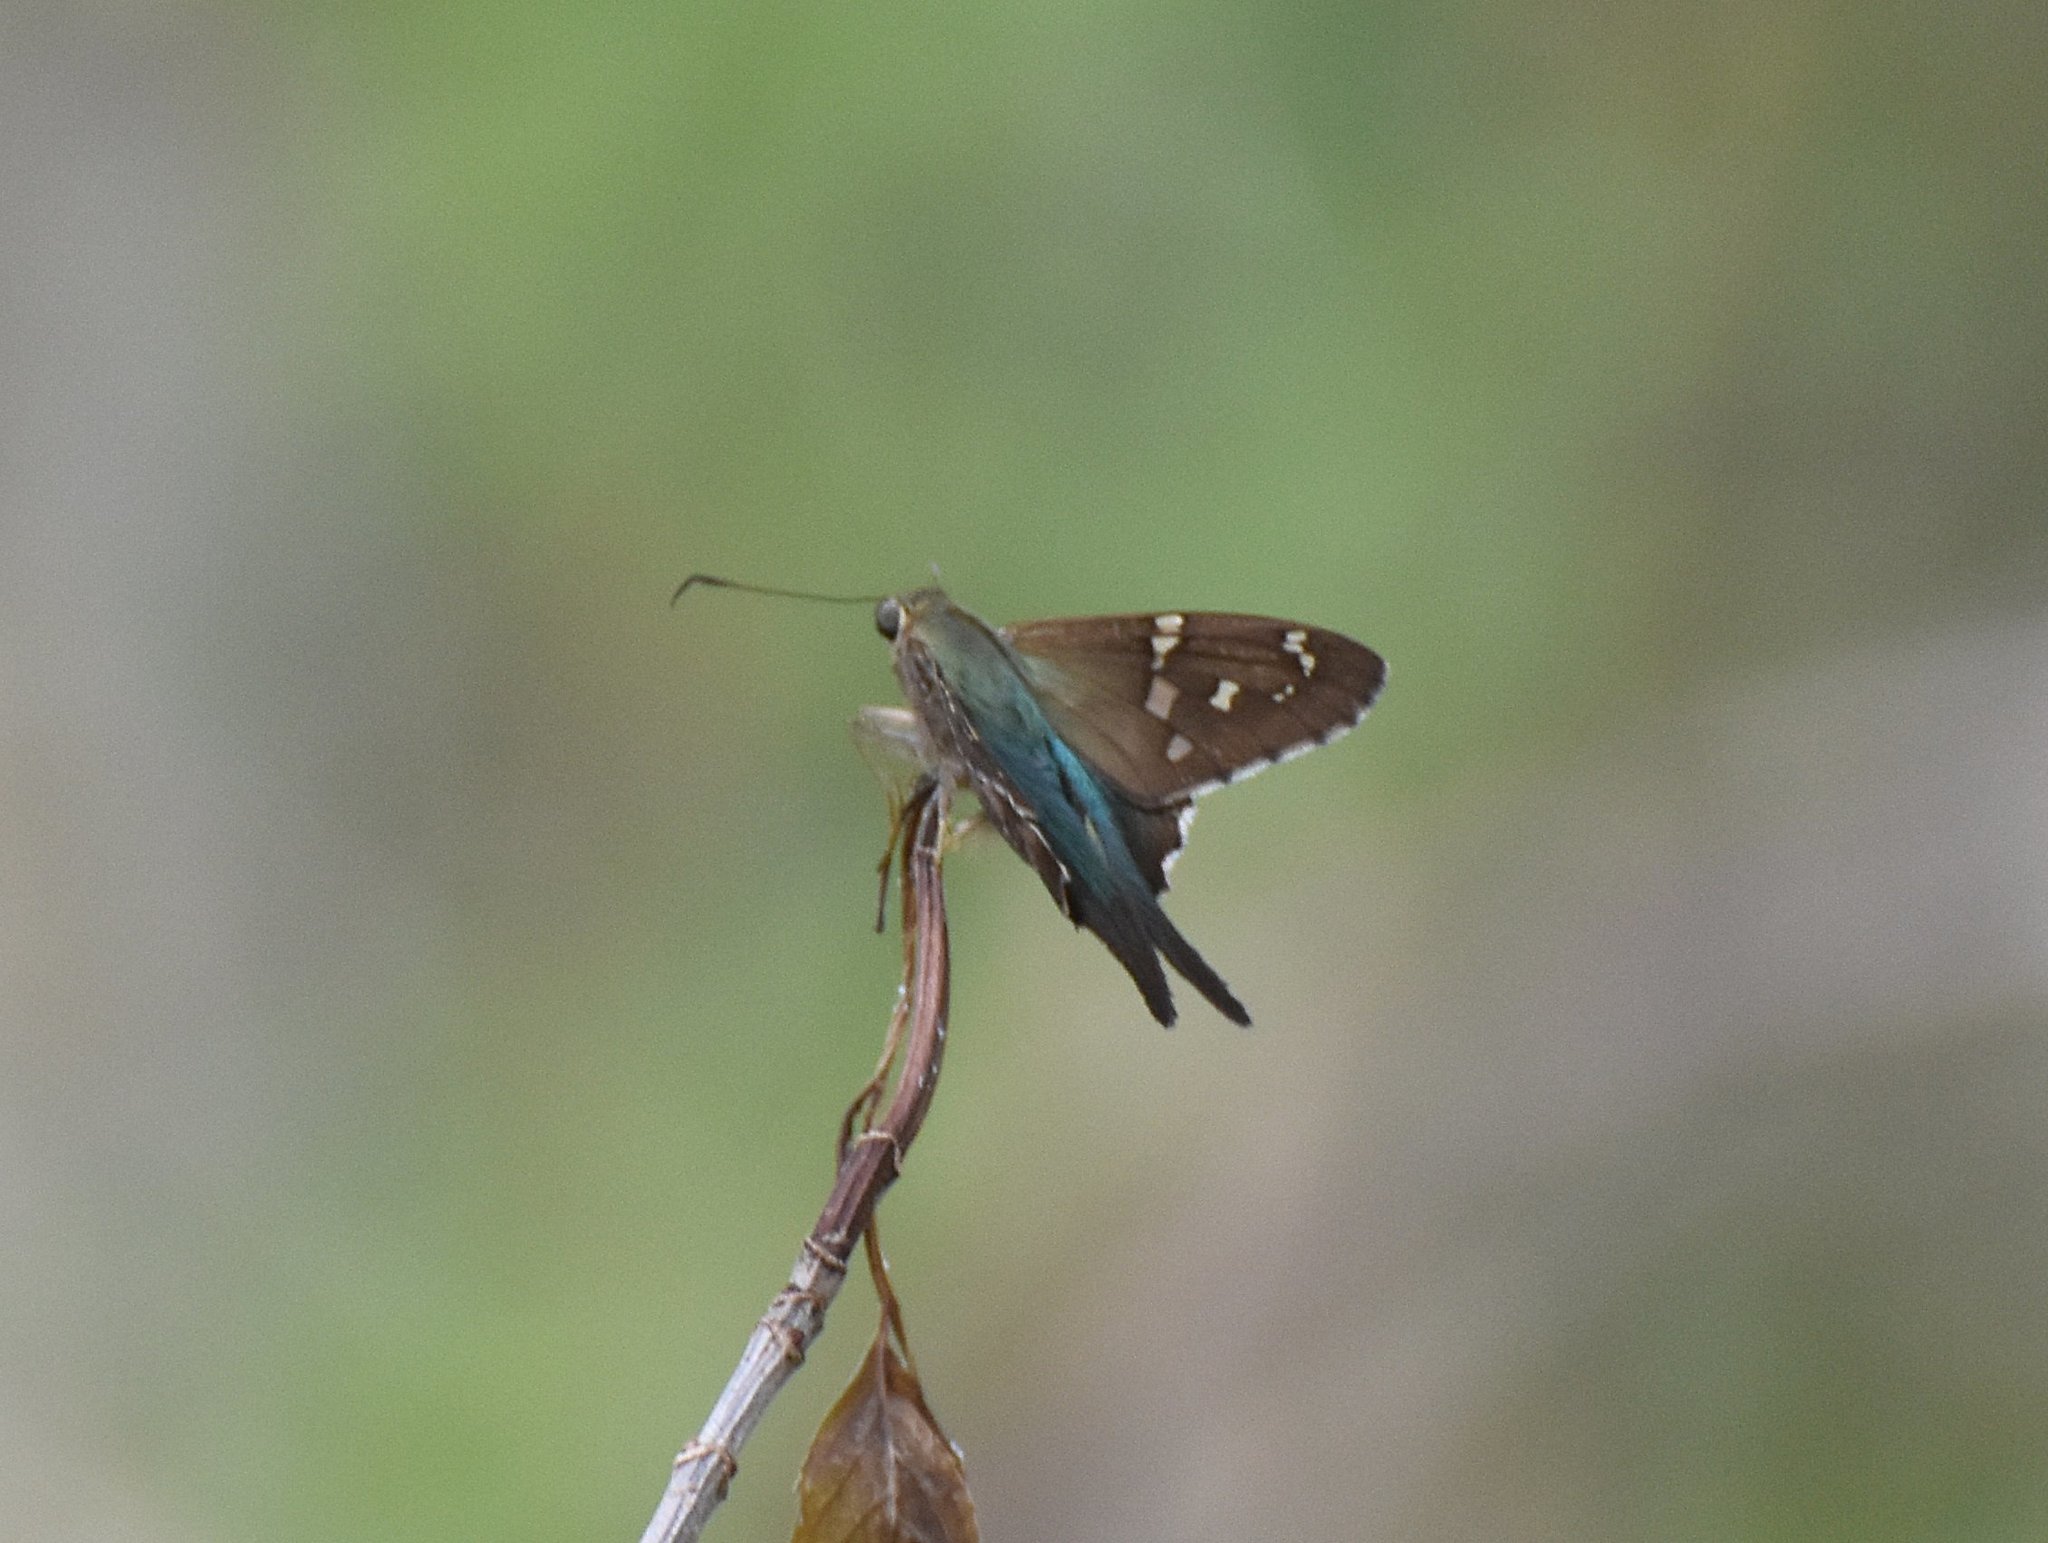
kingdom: Animalia
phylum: Arthropoda
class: Insecta
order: Lepidoptera
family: Hesperiidae
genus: Urbanus
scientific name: Urbanus proteus
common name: Long-tailed skipper
